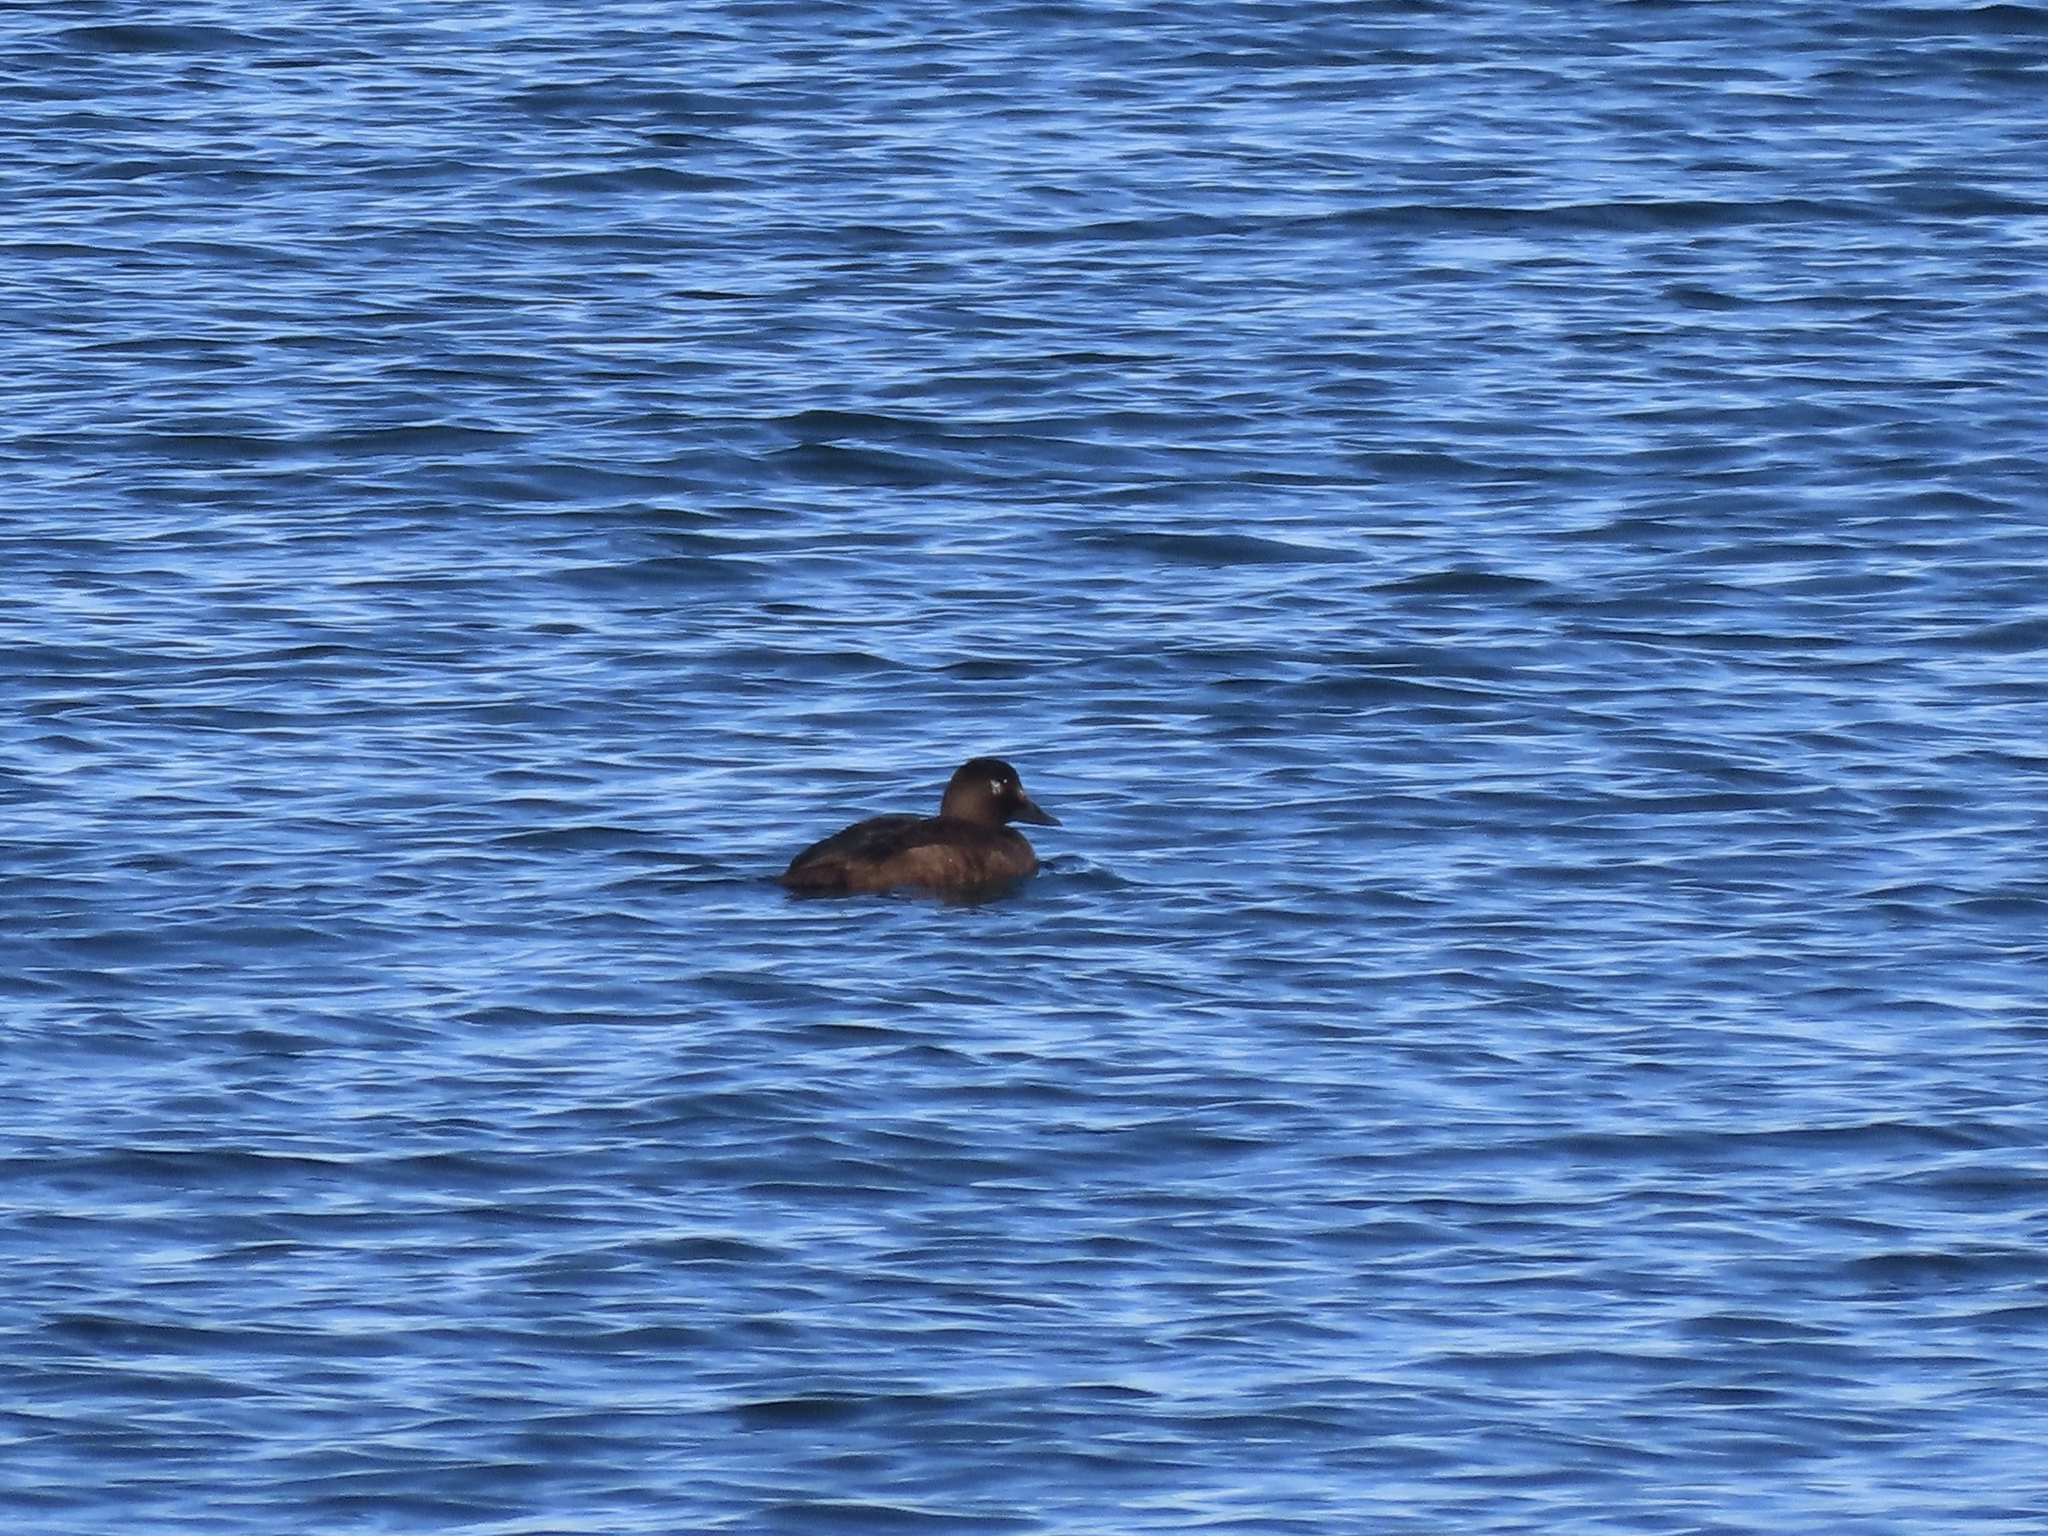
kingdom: Animalia
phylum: Chordata
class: Aves
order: Anseriformes
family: Anatidae
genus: Melanitta
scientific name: Melanitta deglandi
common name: White-winged scoter
